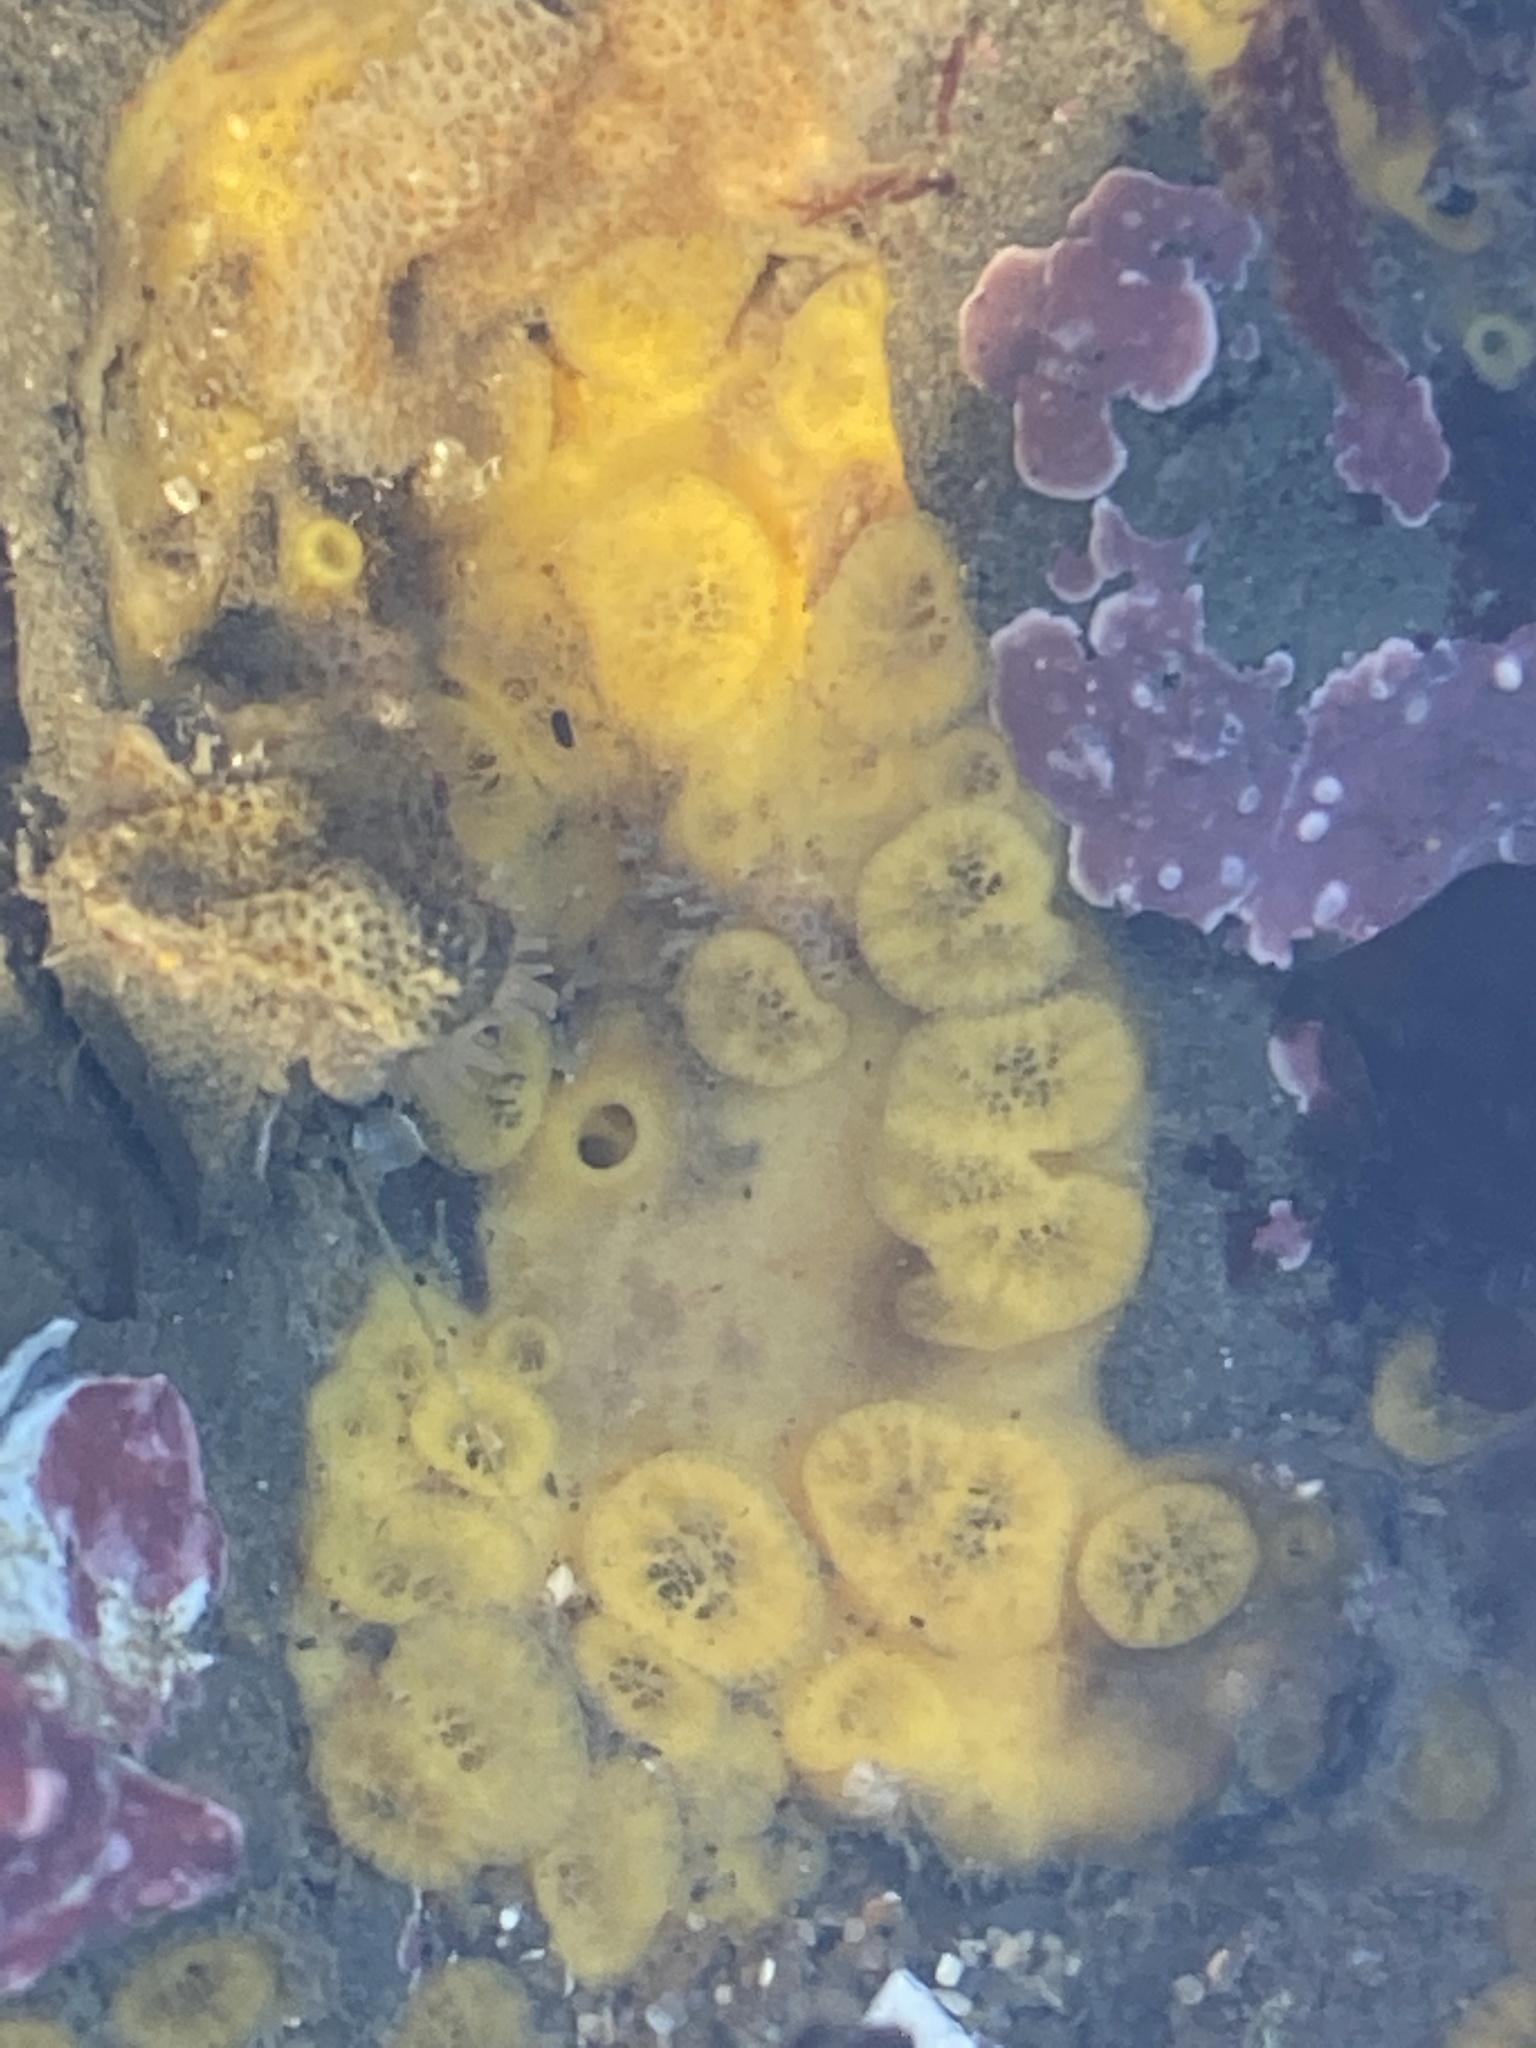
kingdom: Animalia
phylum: Porifera
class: Demospongiae
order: Clionaida
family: Clionaidae
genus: Cliona
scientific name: Cliona californiana
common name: California boring horny sponge
